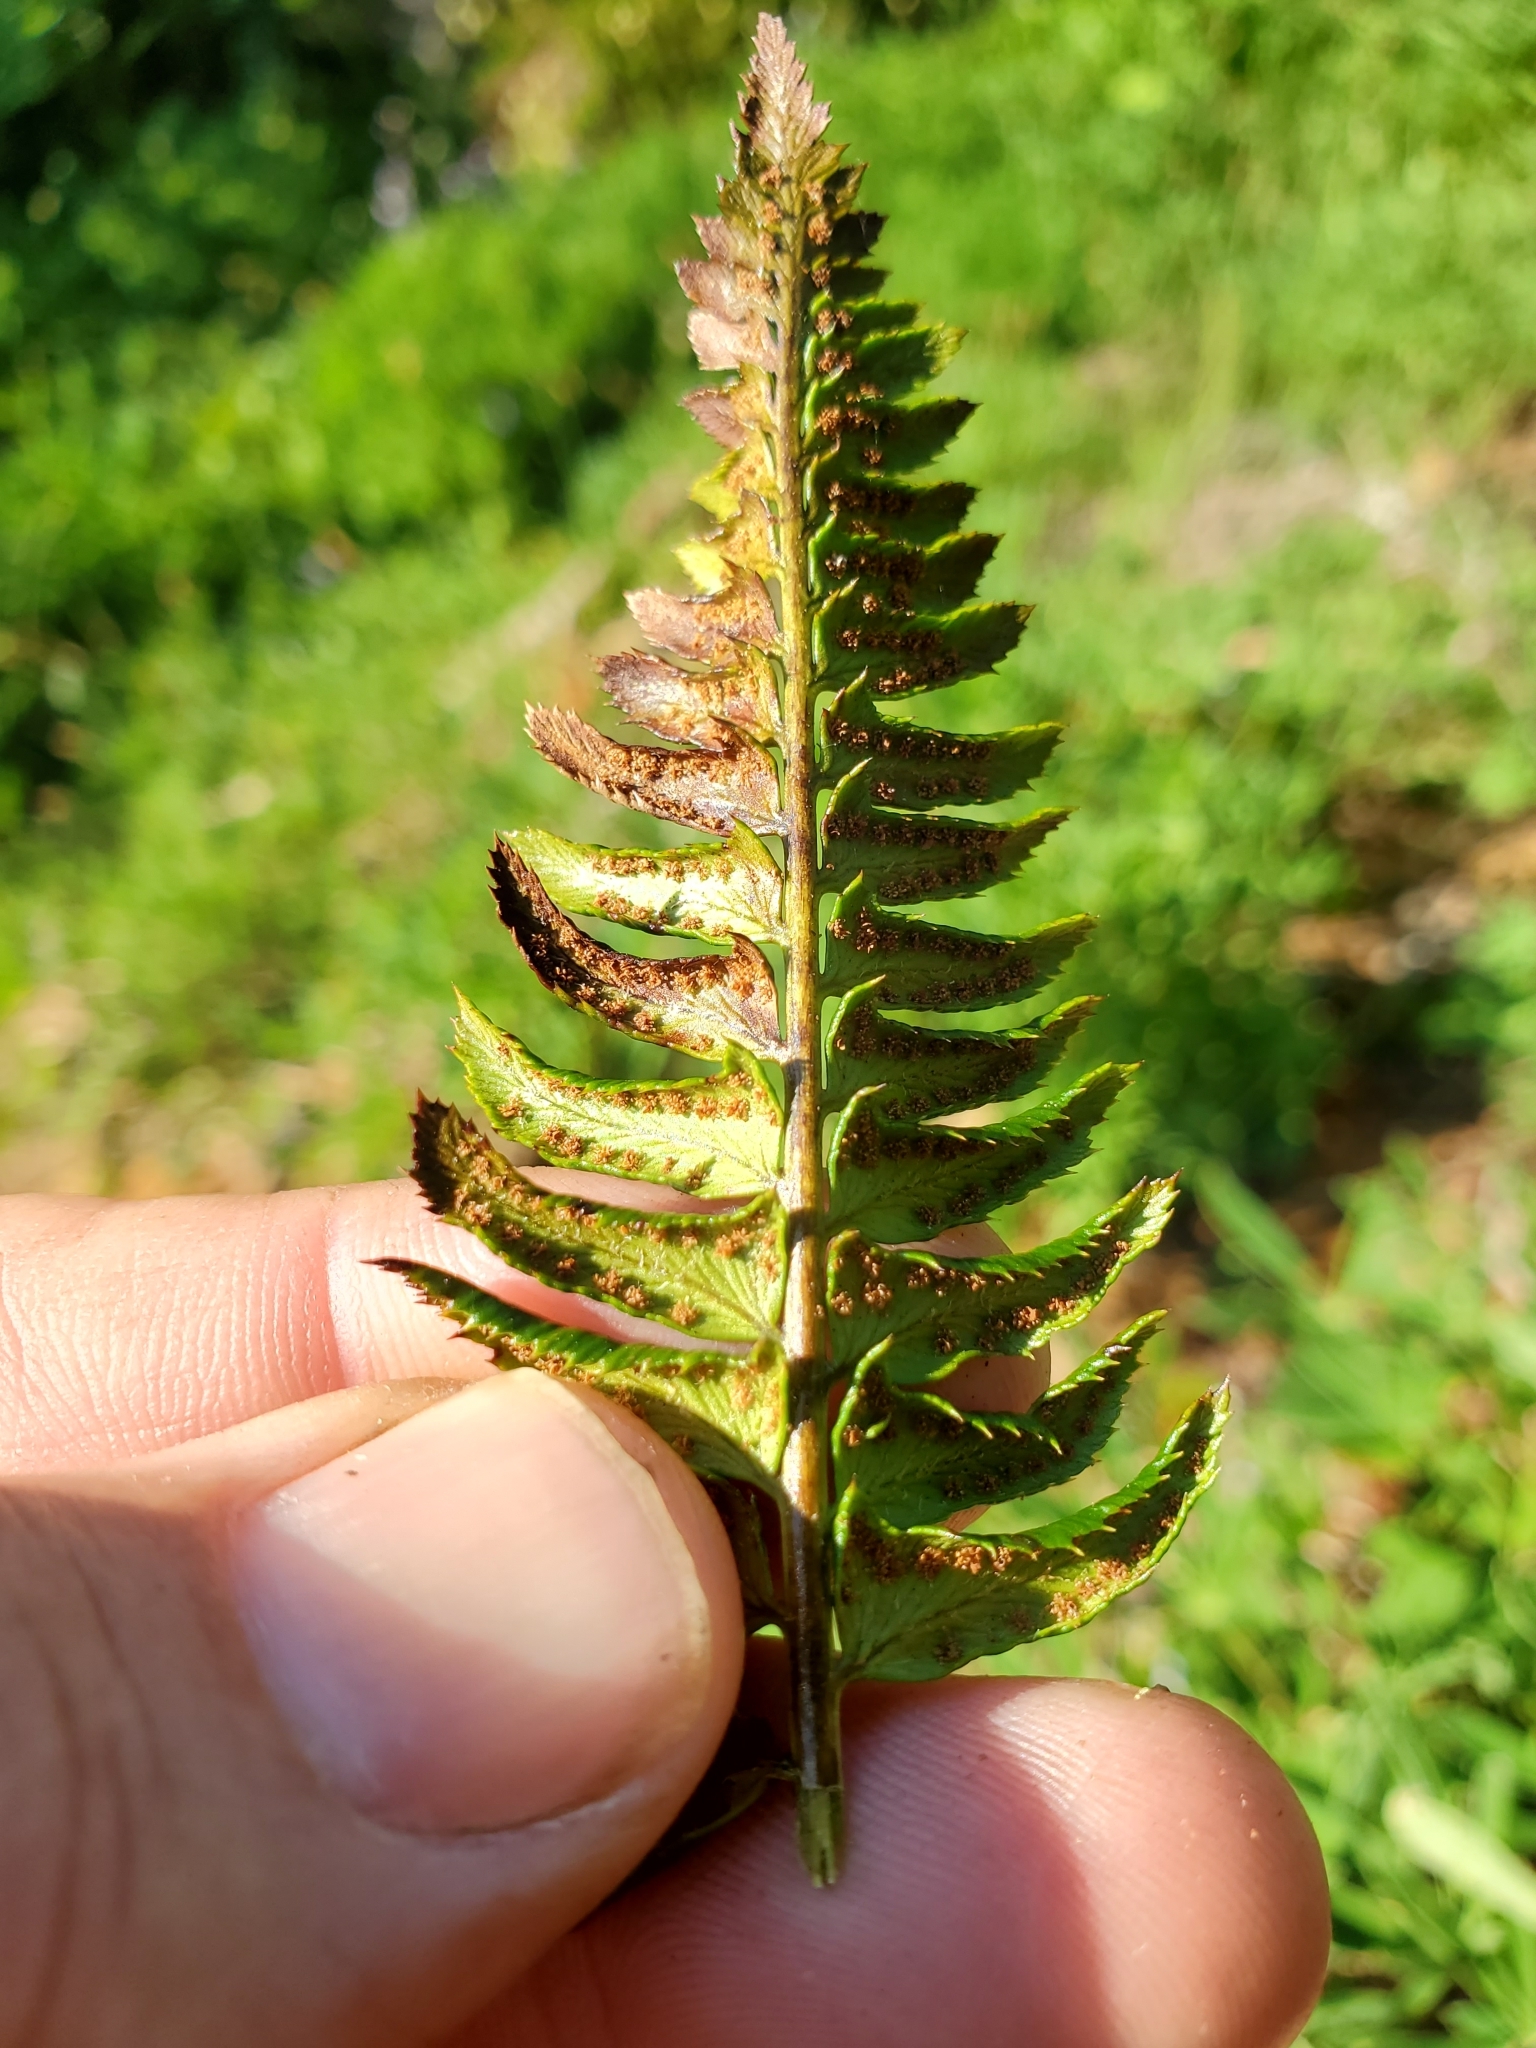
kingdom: Plantae
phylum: Tracheophyta
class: Polypodiopsida
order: Polypodiales
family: Dryopteridaceae
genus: Polystichum
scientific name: Polystichum lonchitis
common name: Holly fern
